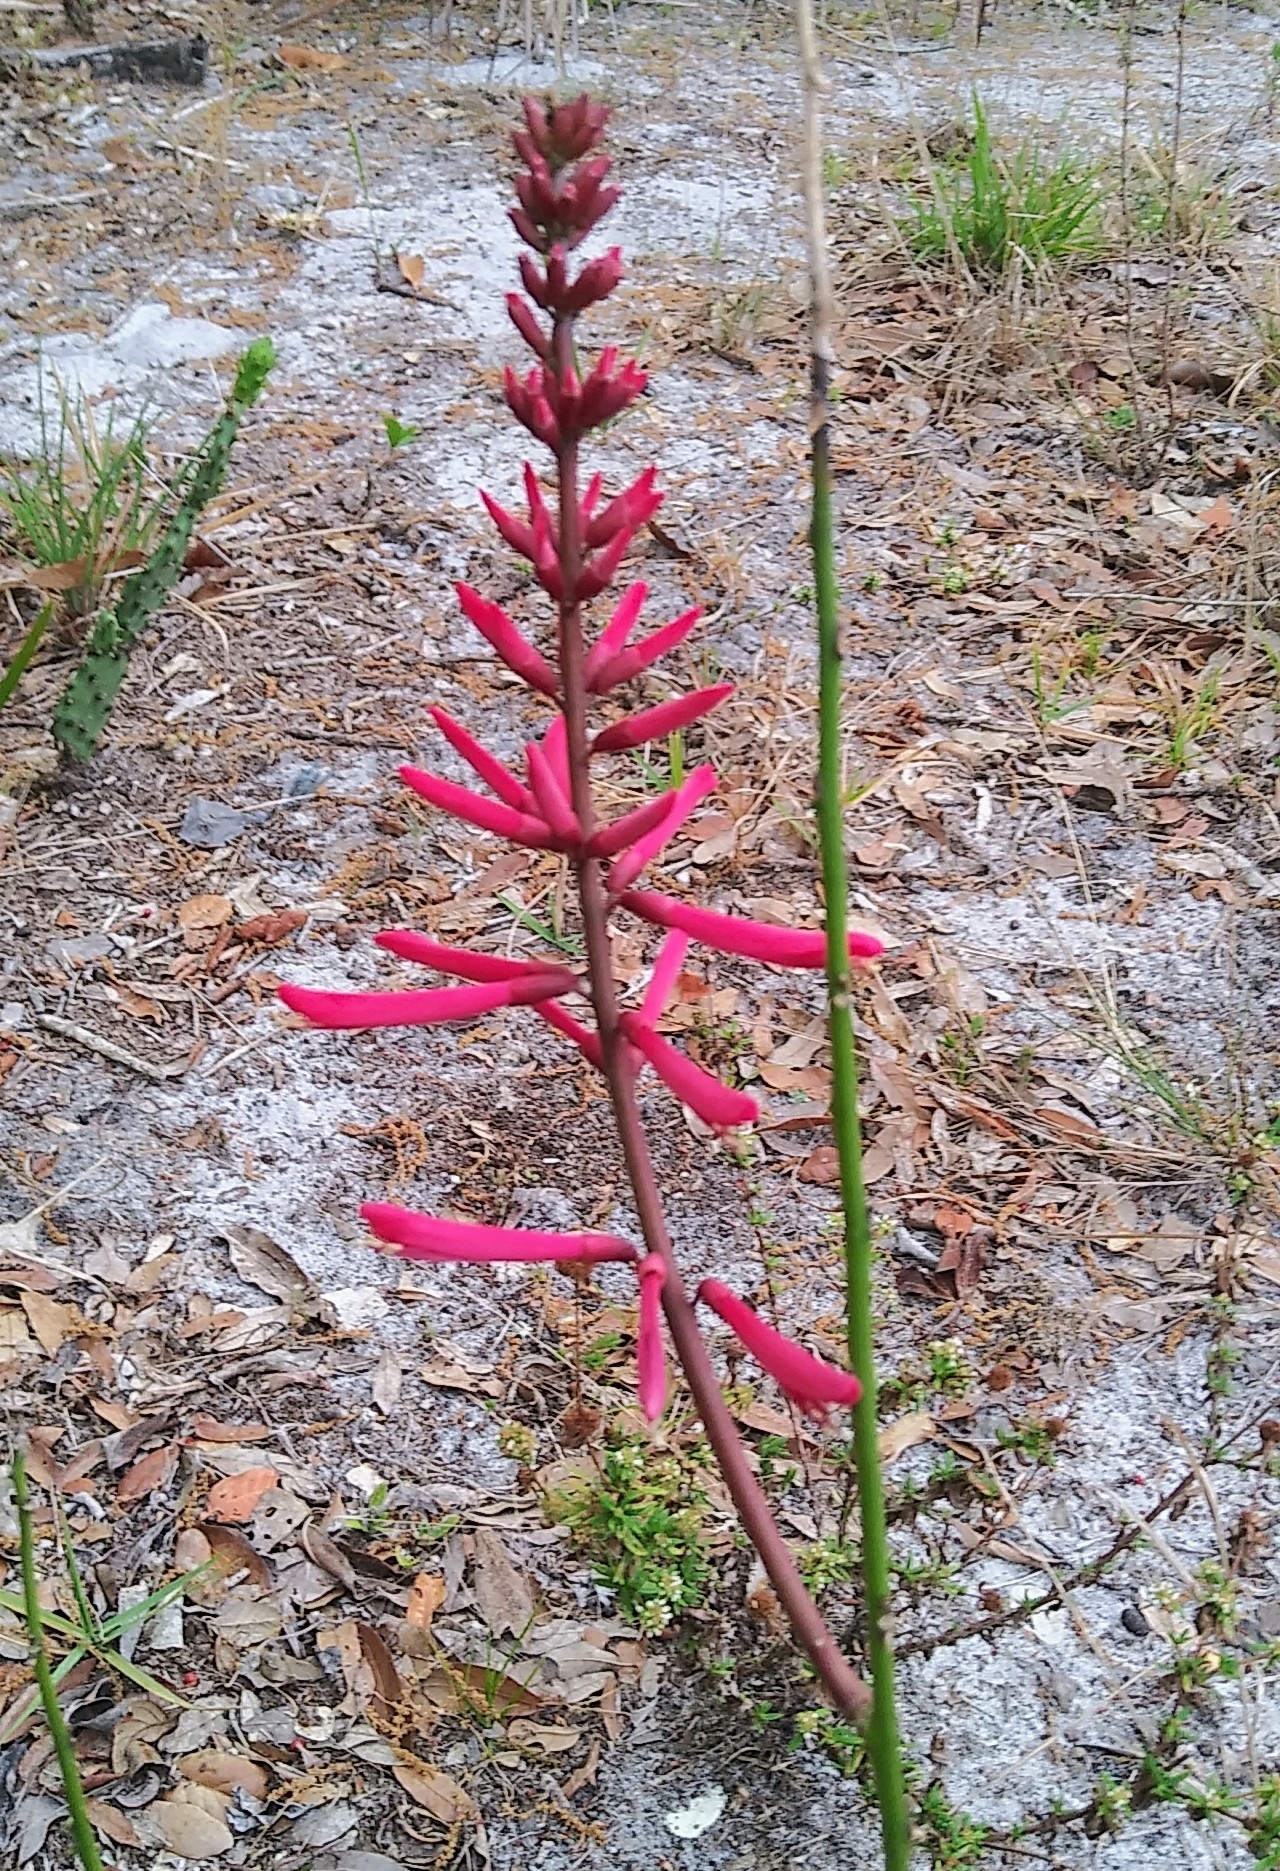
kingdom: Plantae
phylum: Tracheophyta
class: Magnoliopsida
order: Fabales
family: Fabaceae
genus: Erythrina
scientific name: Erythrina herbacea
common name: Coral-bean
